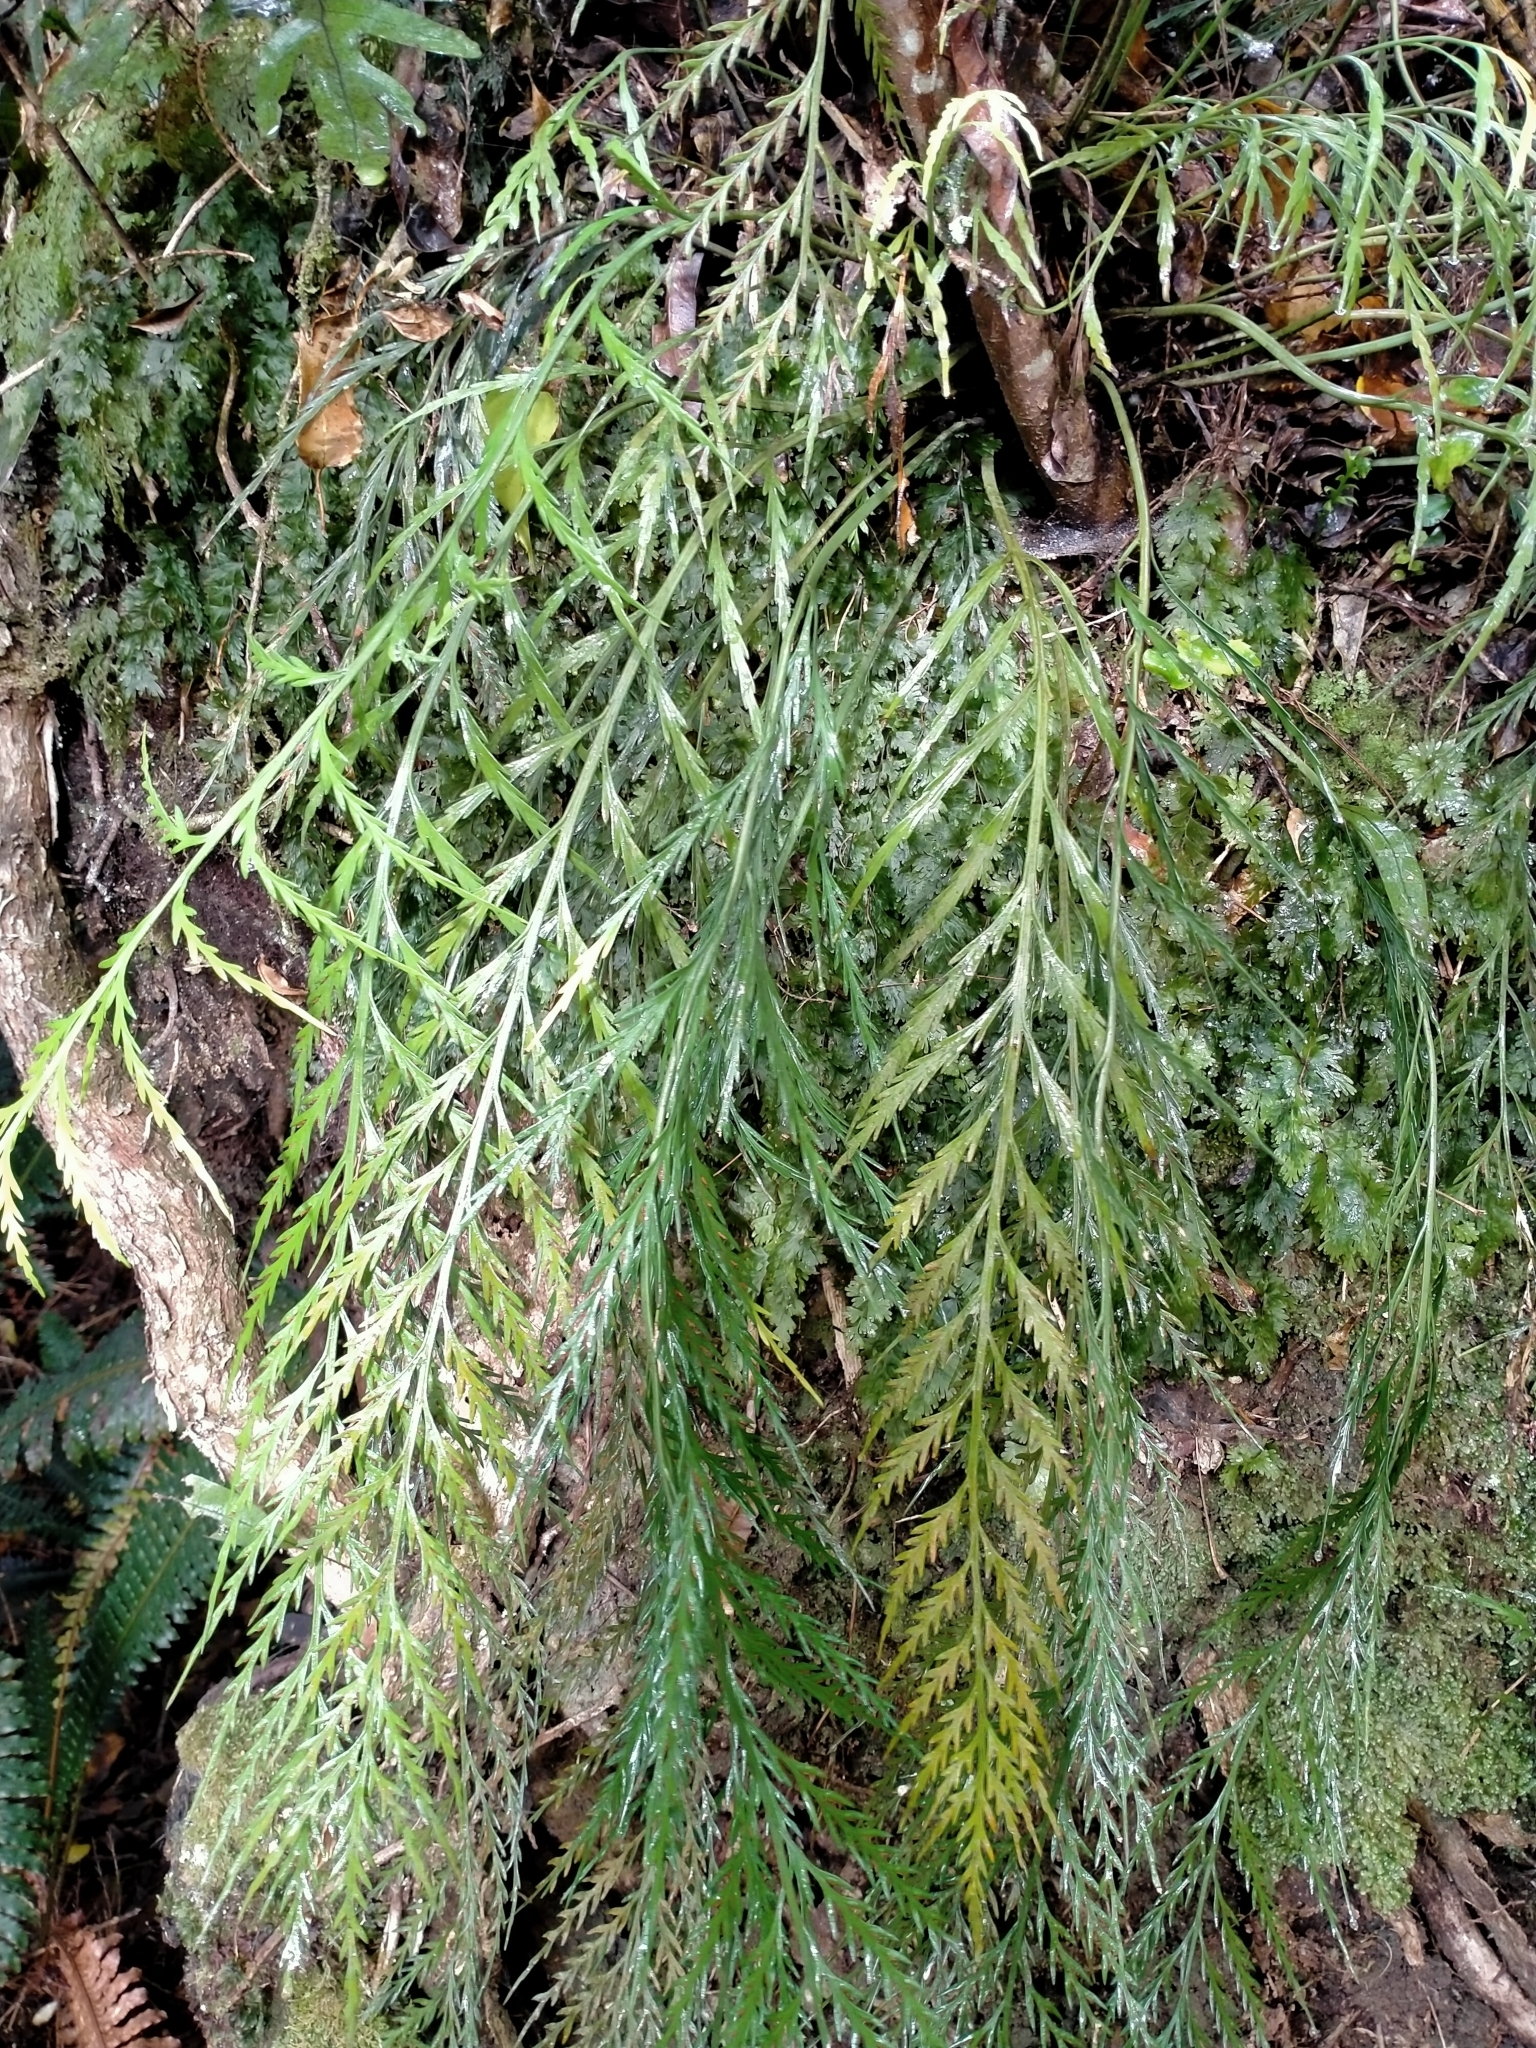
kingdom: Plantae
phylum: Tracheophyta
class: Polypodiopsida
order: Polypodiales
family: Aspleniaceae
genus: Asplenium
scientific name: Asplenium flaccidum
